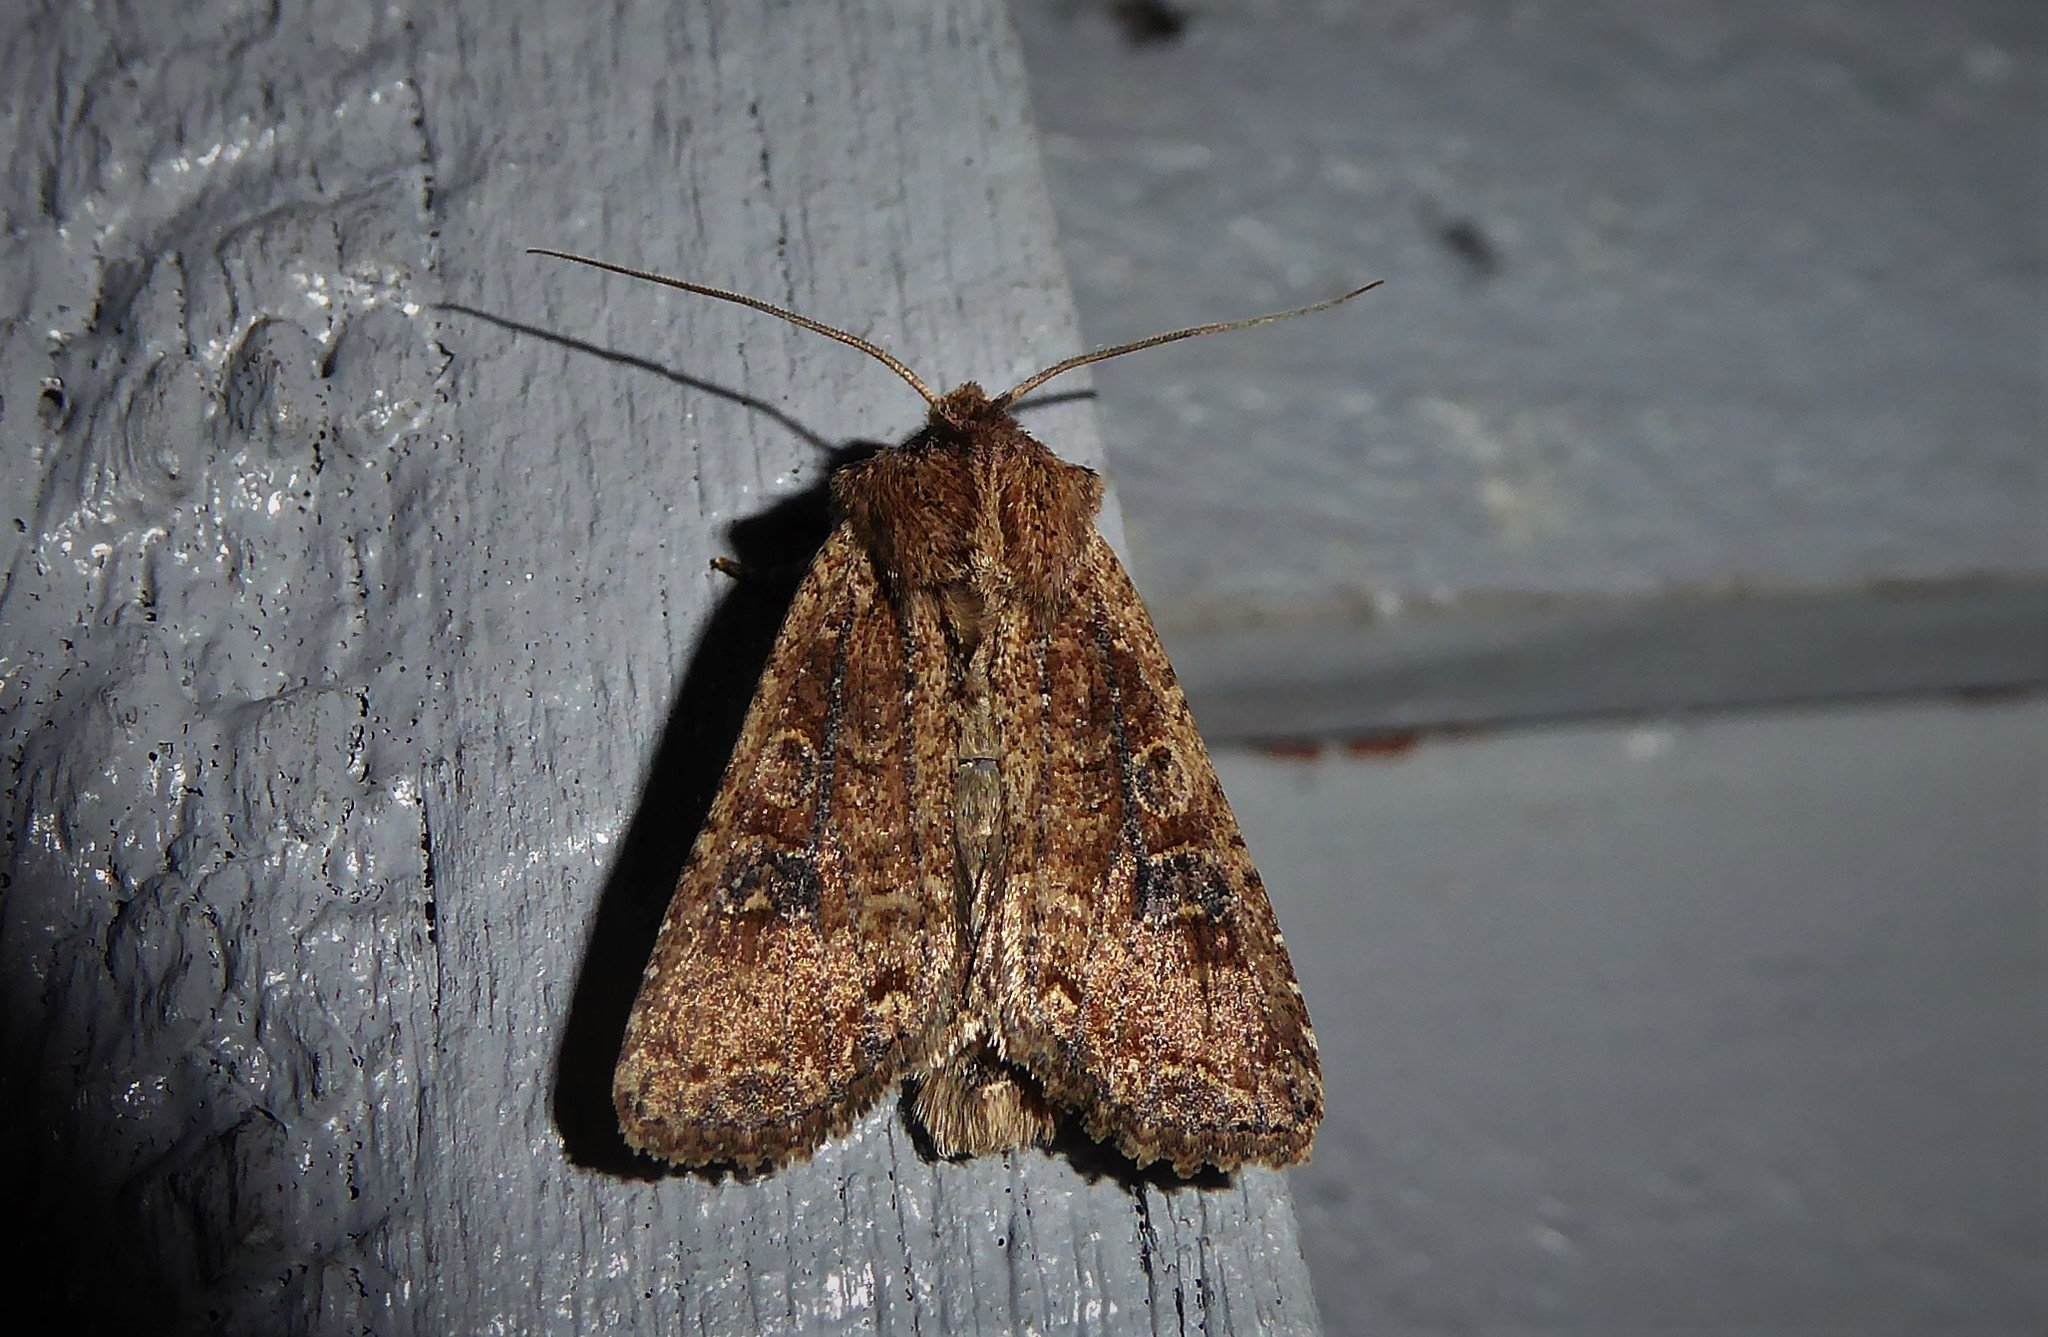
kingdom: Animalia
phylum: Arthropoda
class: Insecta
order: Lepidoptera
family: Noctuidae
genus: Ichneutica
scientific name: Ichneutica morosa
